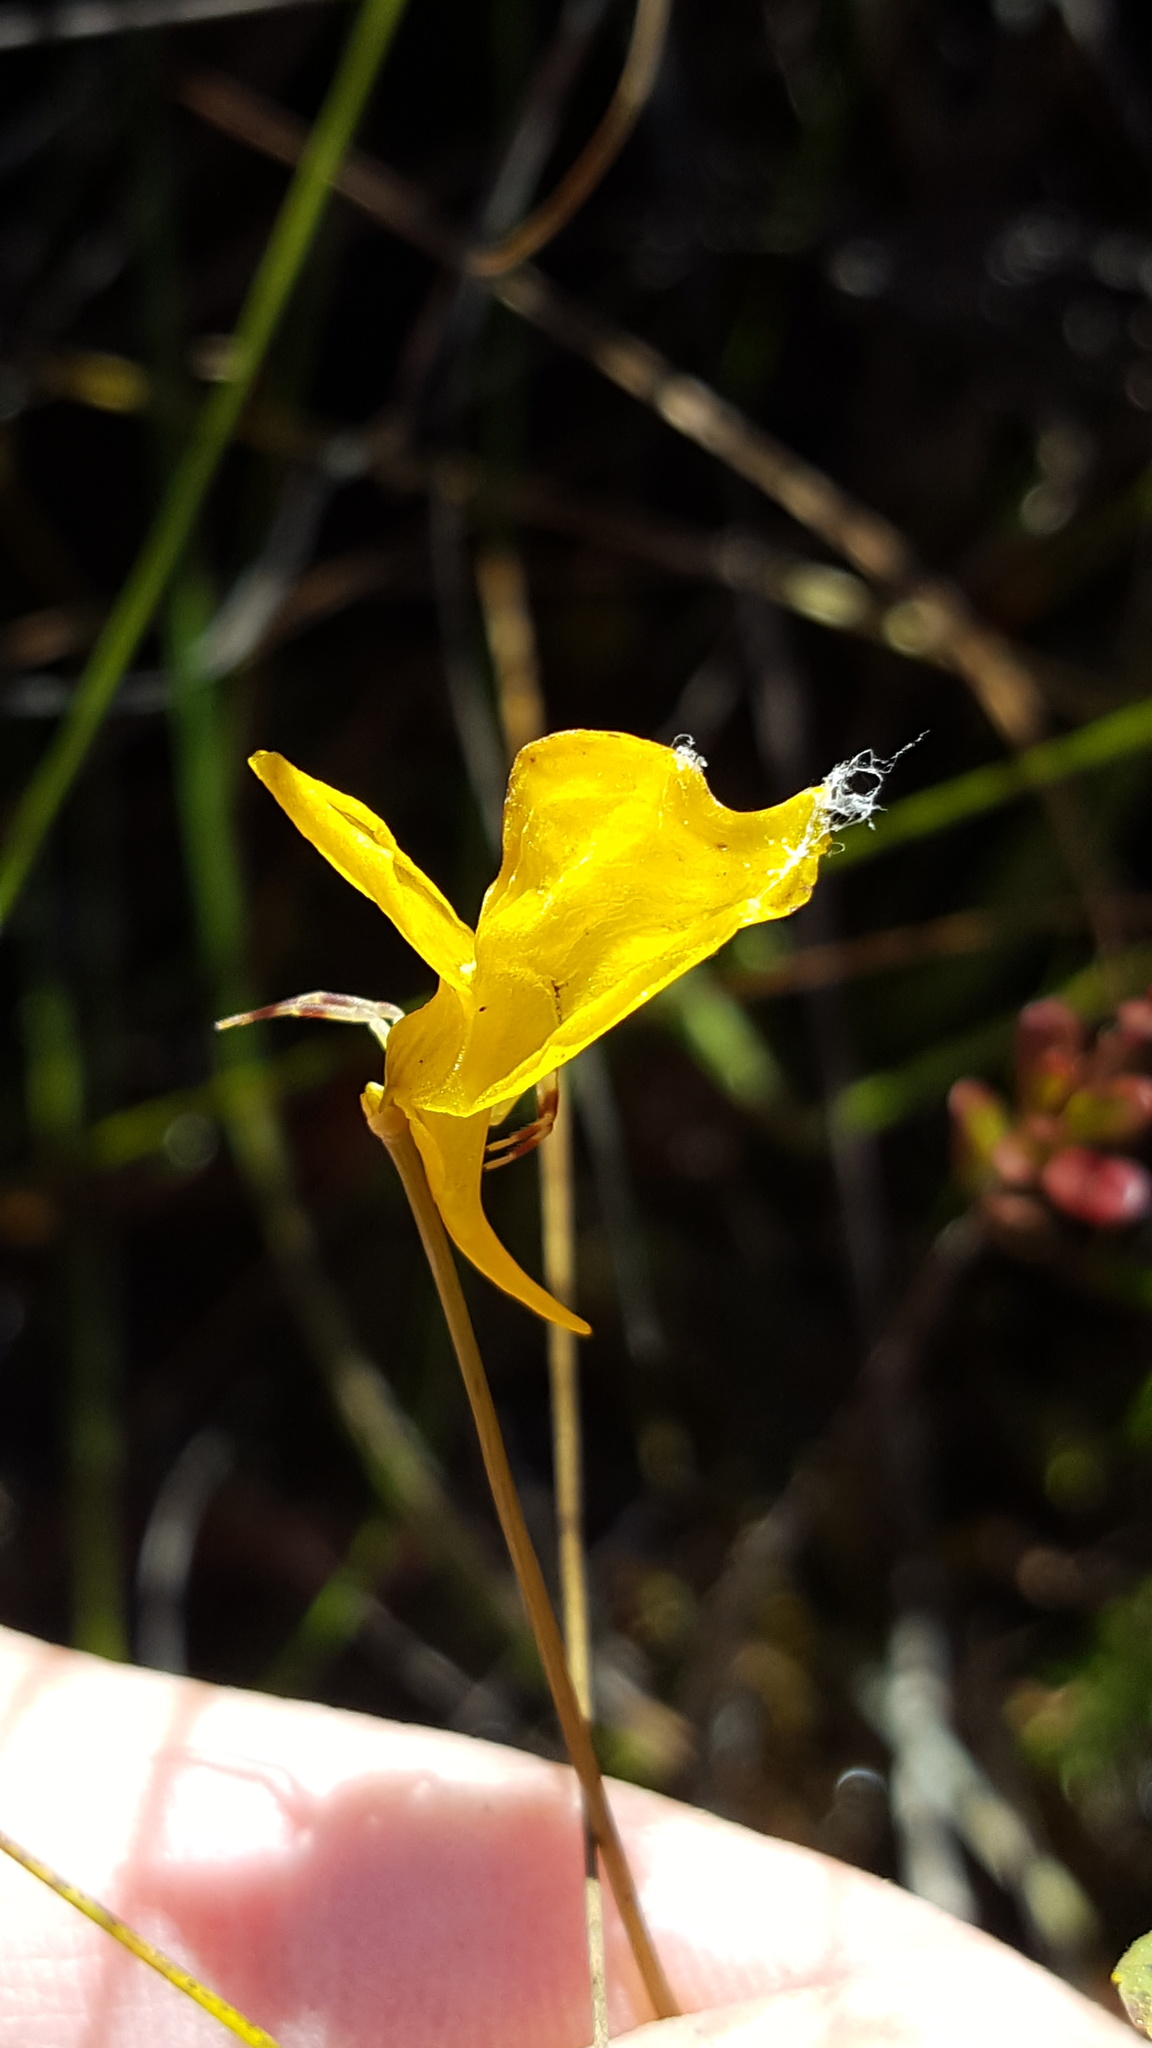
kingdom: Plantae
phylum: Tracheophyta
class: Magnoliopsida
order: Lamiales
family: Lentibulariaceae
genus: Utricularia
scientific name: Utricularia cornuta
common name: Horned bladderwort
